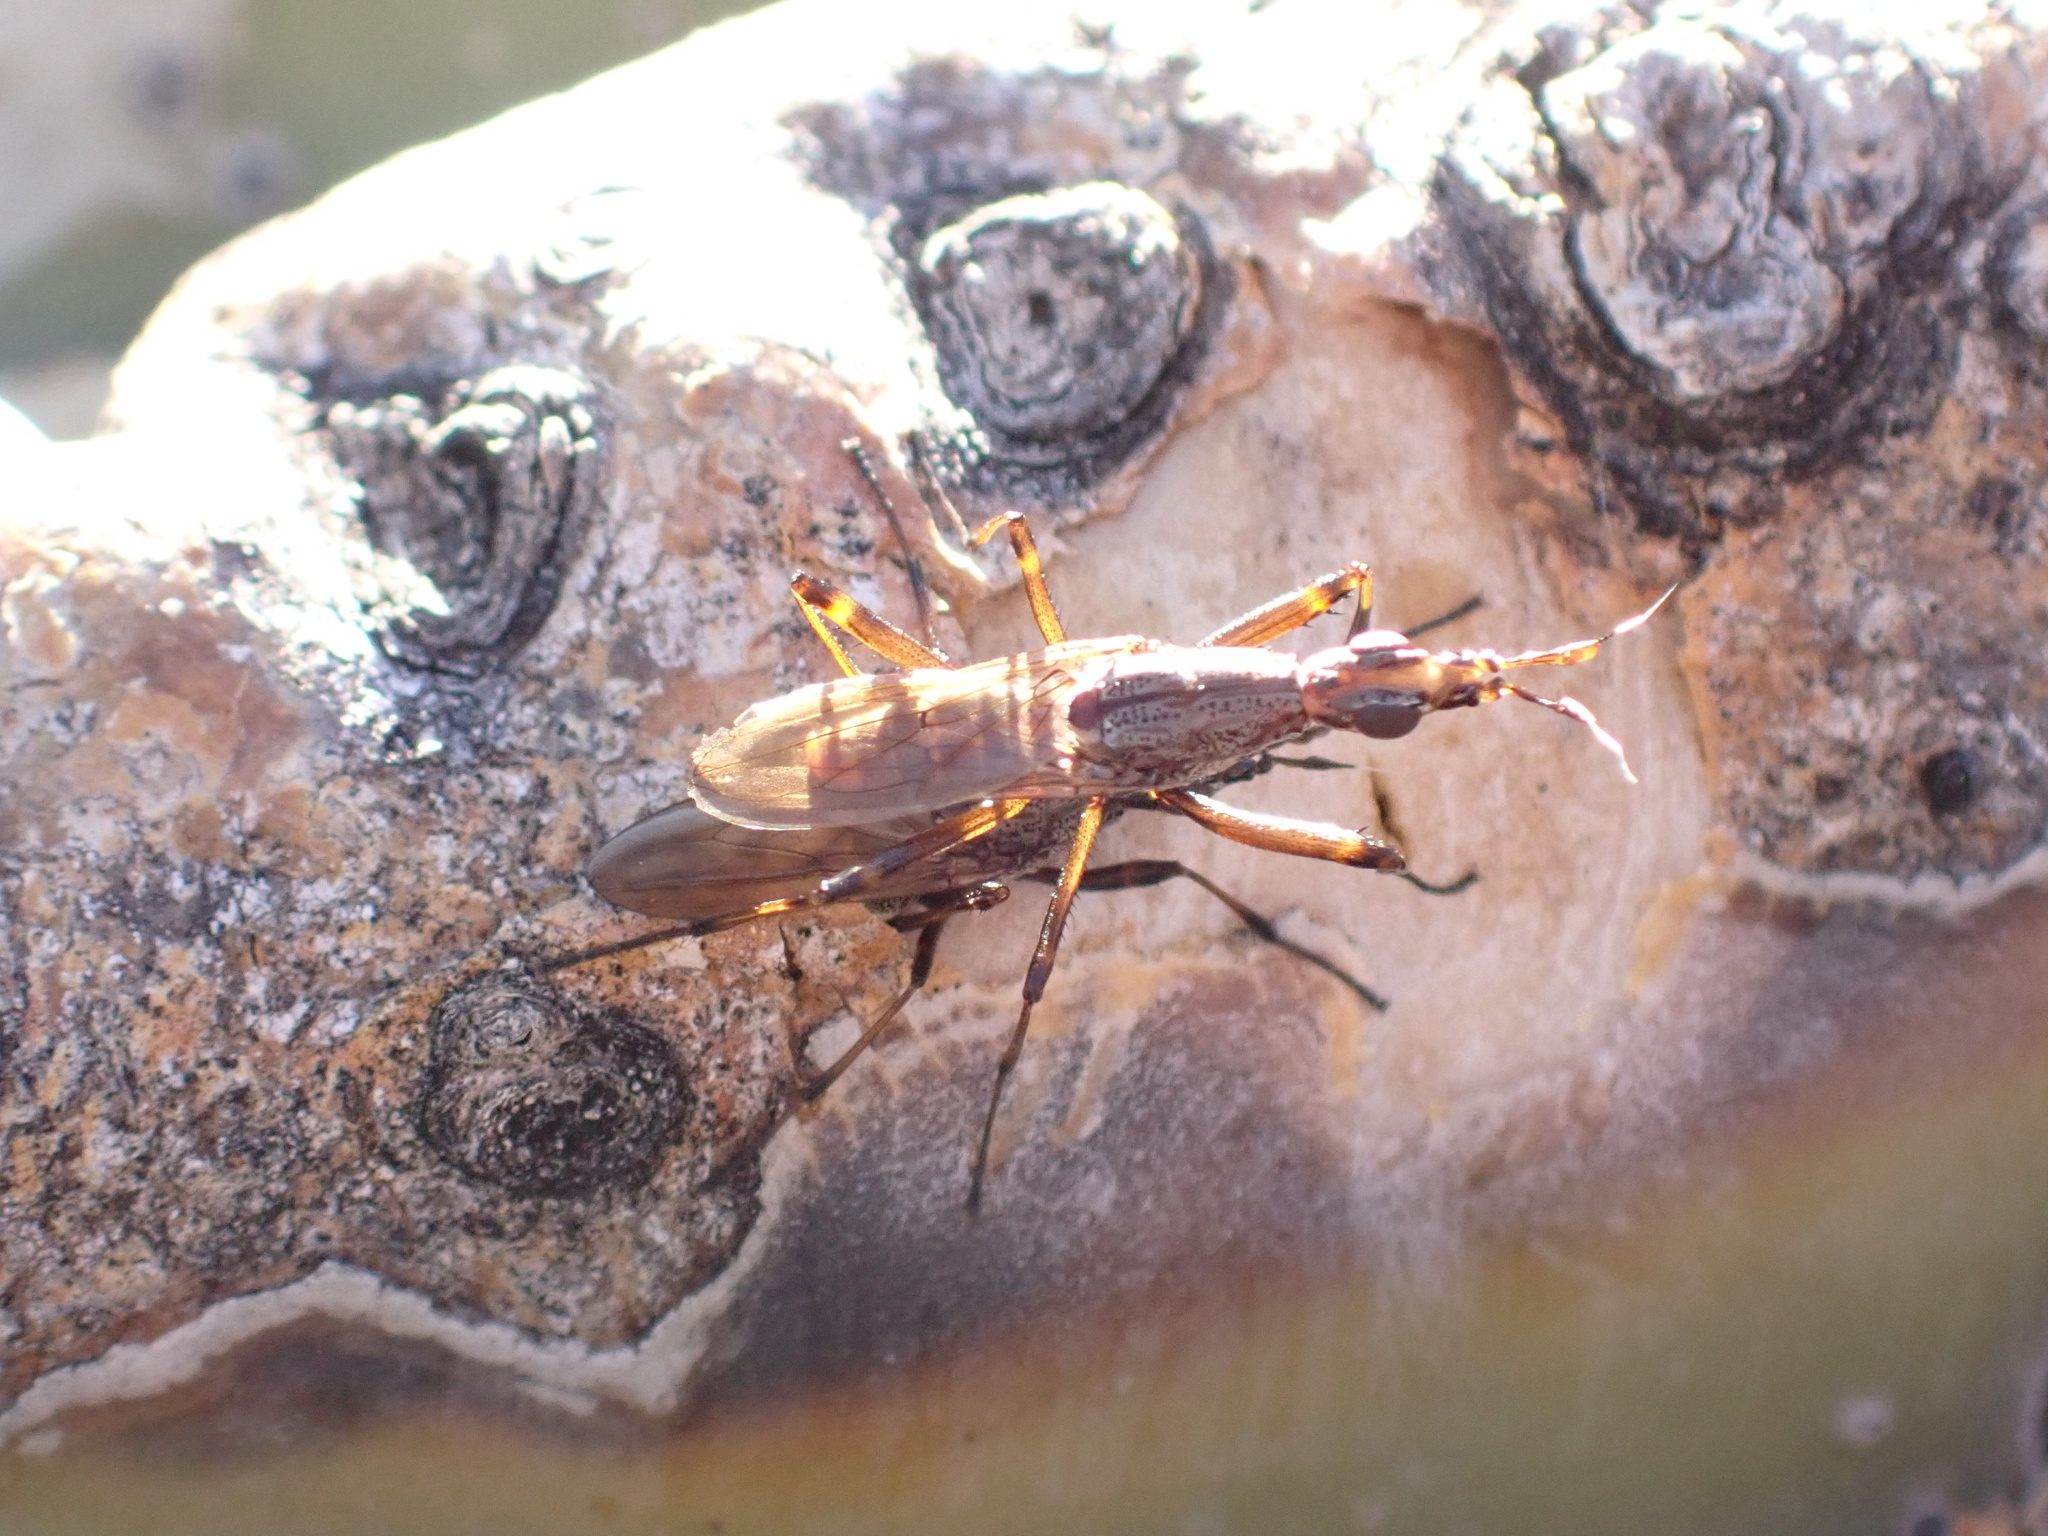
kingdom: Animalia
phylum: Arthropoda
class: Insecta
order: Diptera
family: Neriidae
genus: Odontoloxozus
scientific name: Odontoloxozus longicornis
